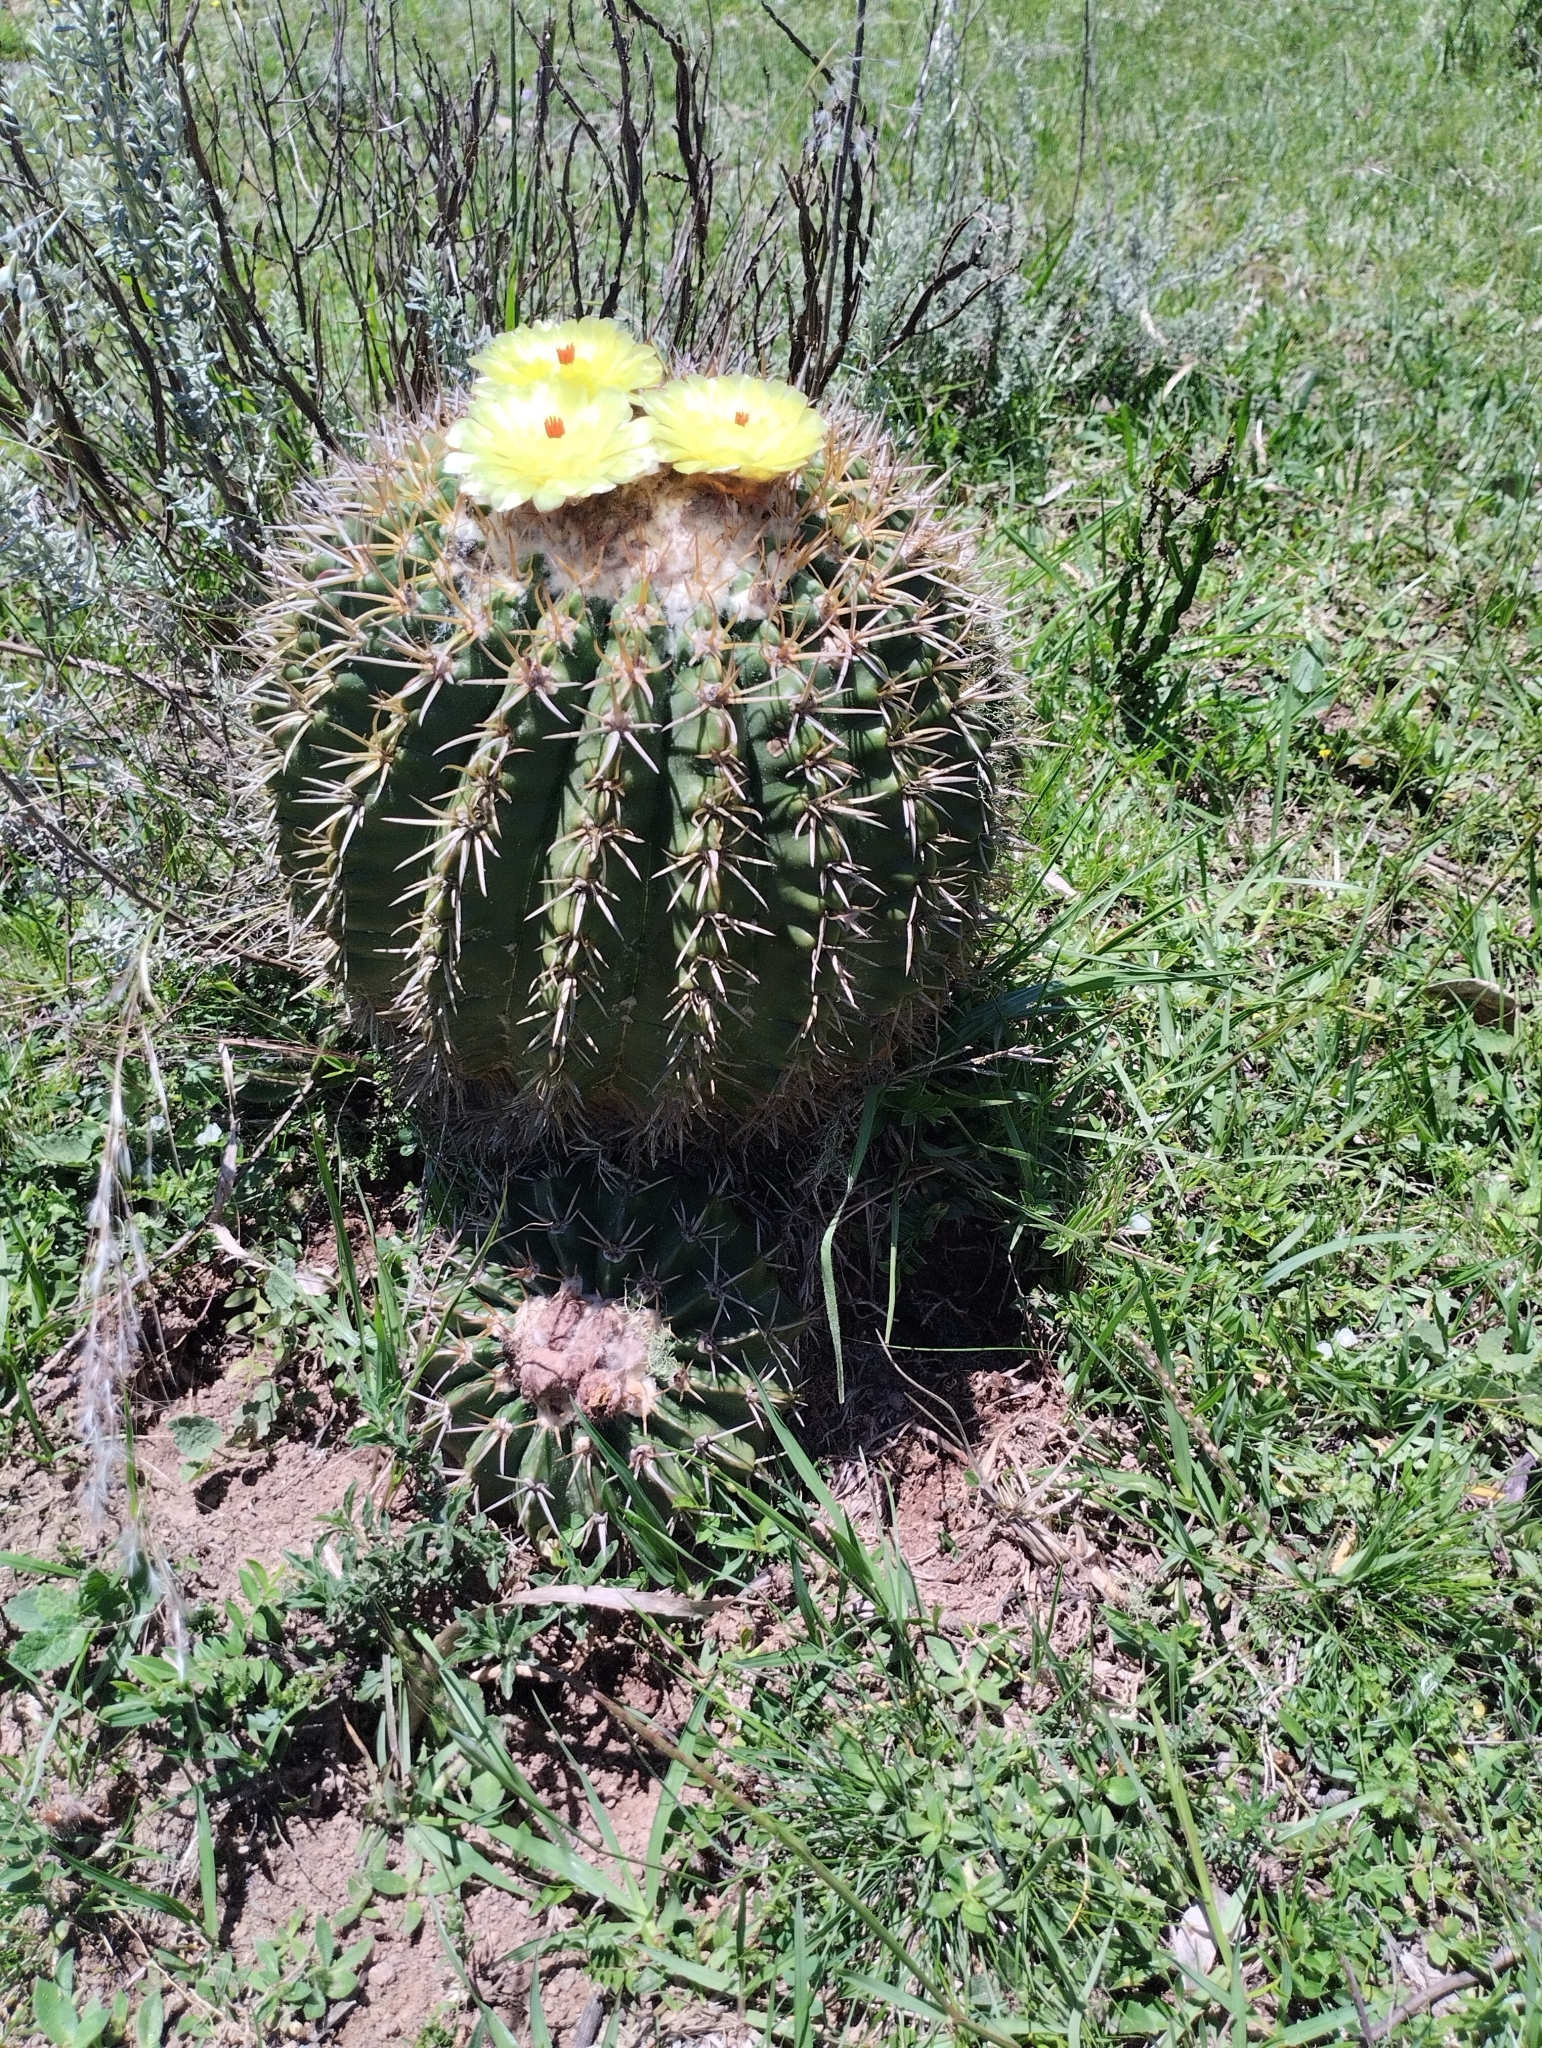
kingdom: Plantae
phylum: Tracheophyta
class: Magnoliopsida
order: Caryophyllales
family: Cactaceae
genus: Parodia
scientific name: Parodia erinacea
